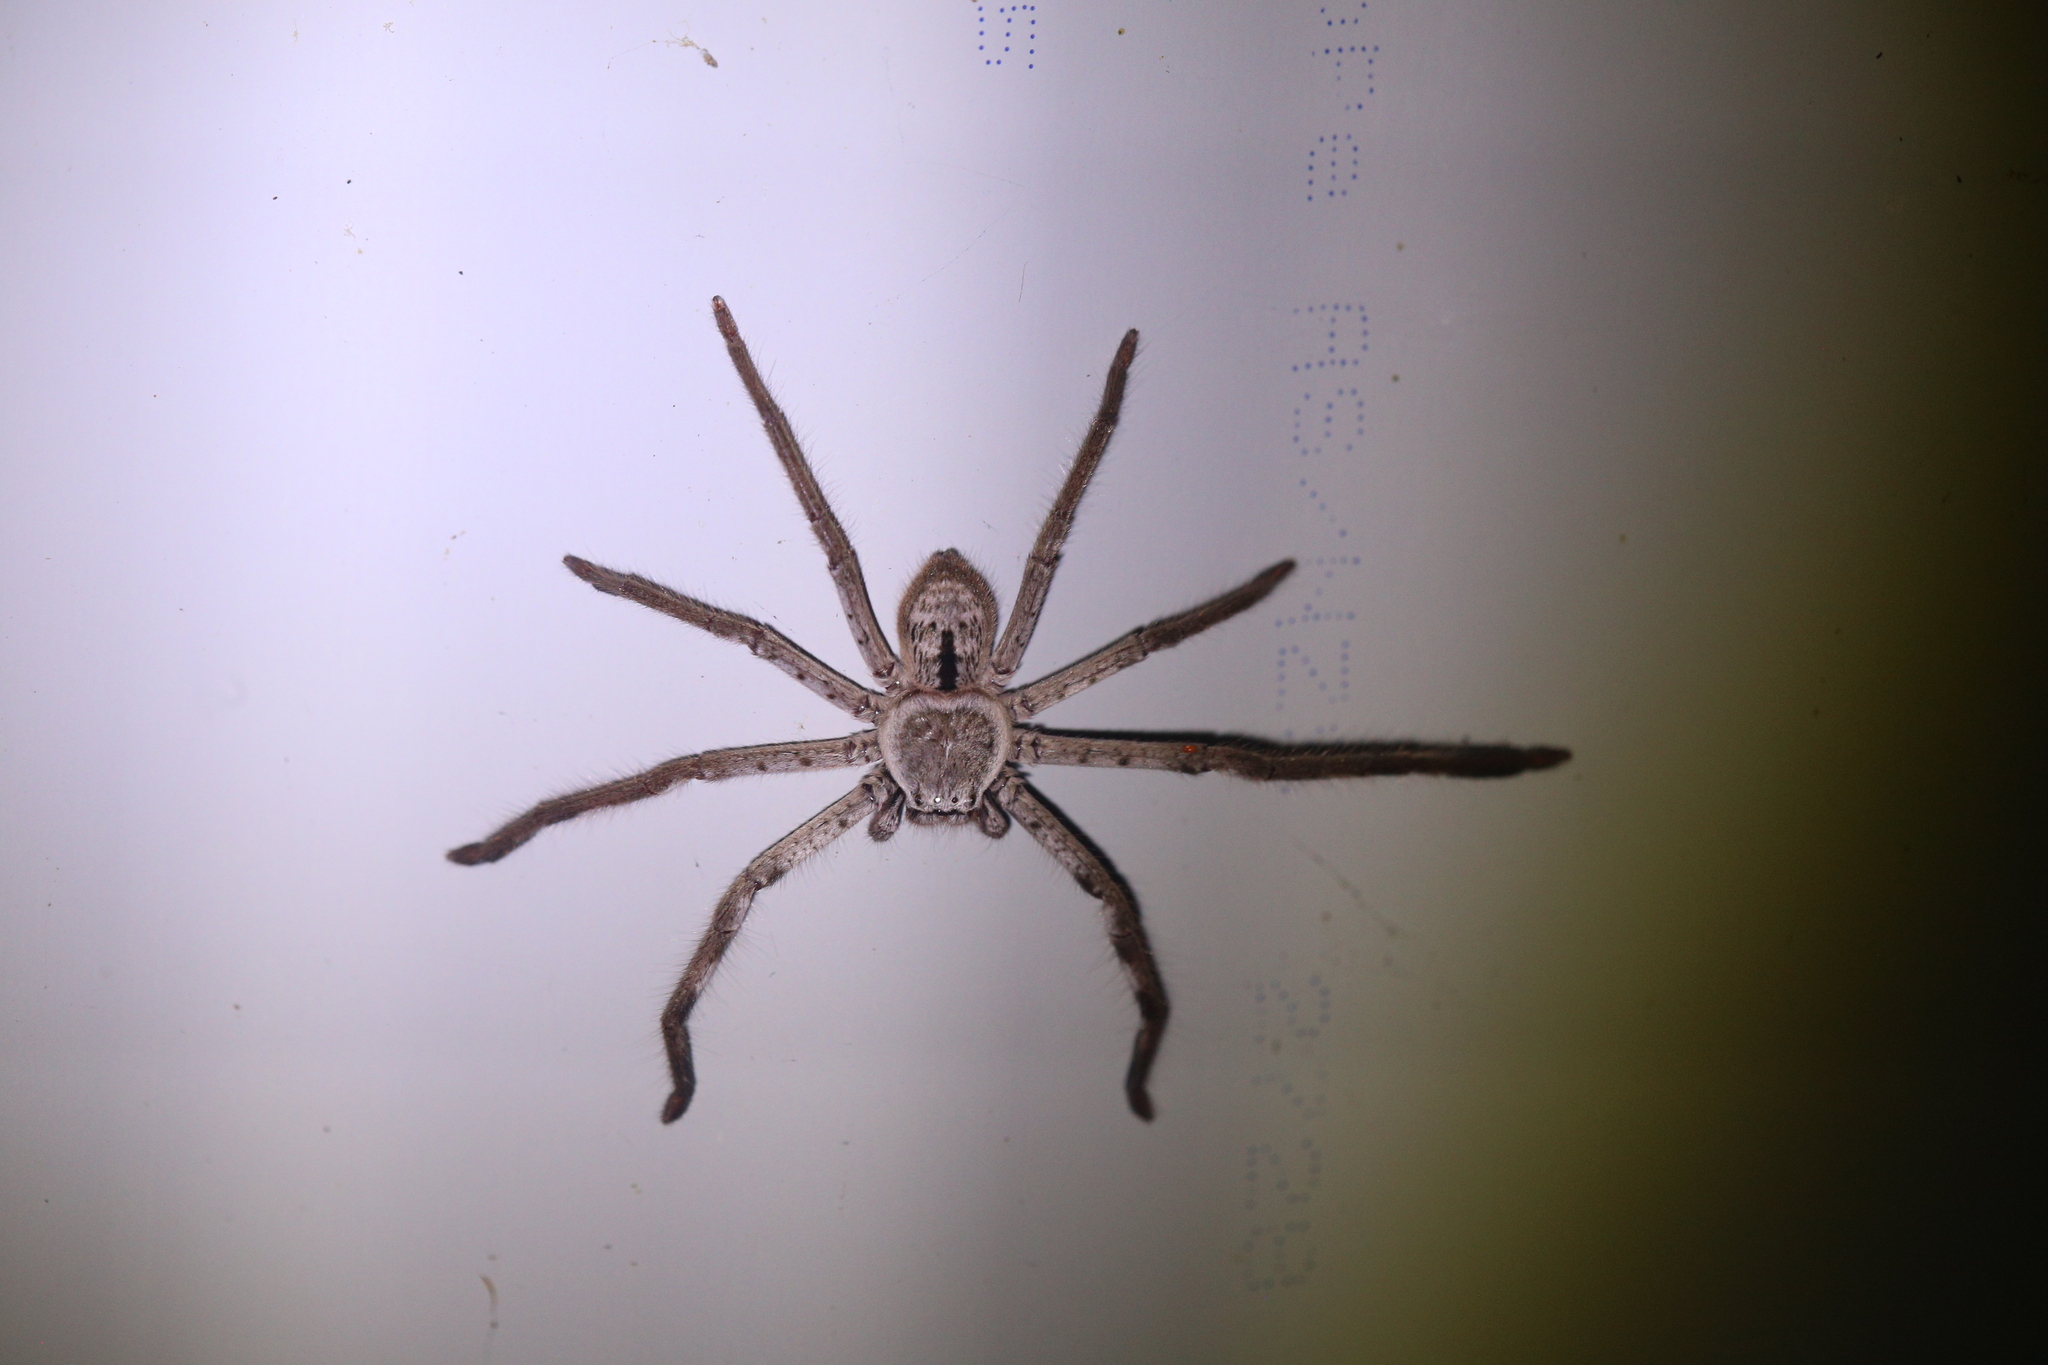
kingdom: Animalia
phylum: Arthropoda
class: Arachnida
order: Araneae
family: Sparassidae
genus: Holconia
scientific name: Holconia immanis
